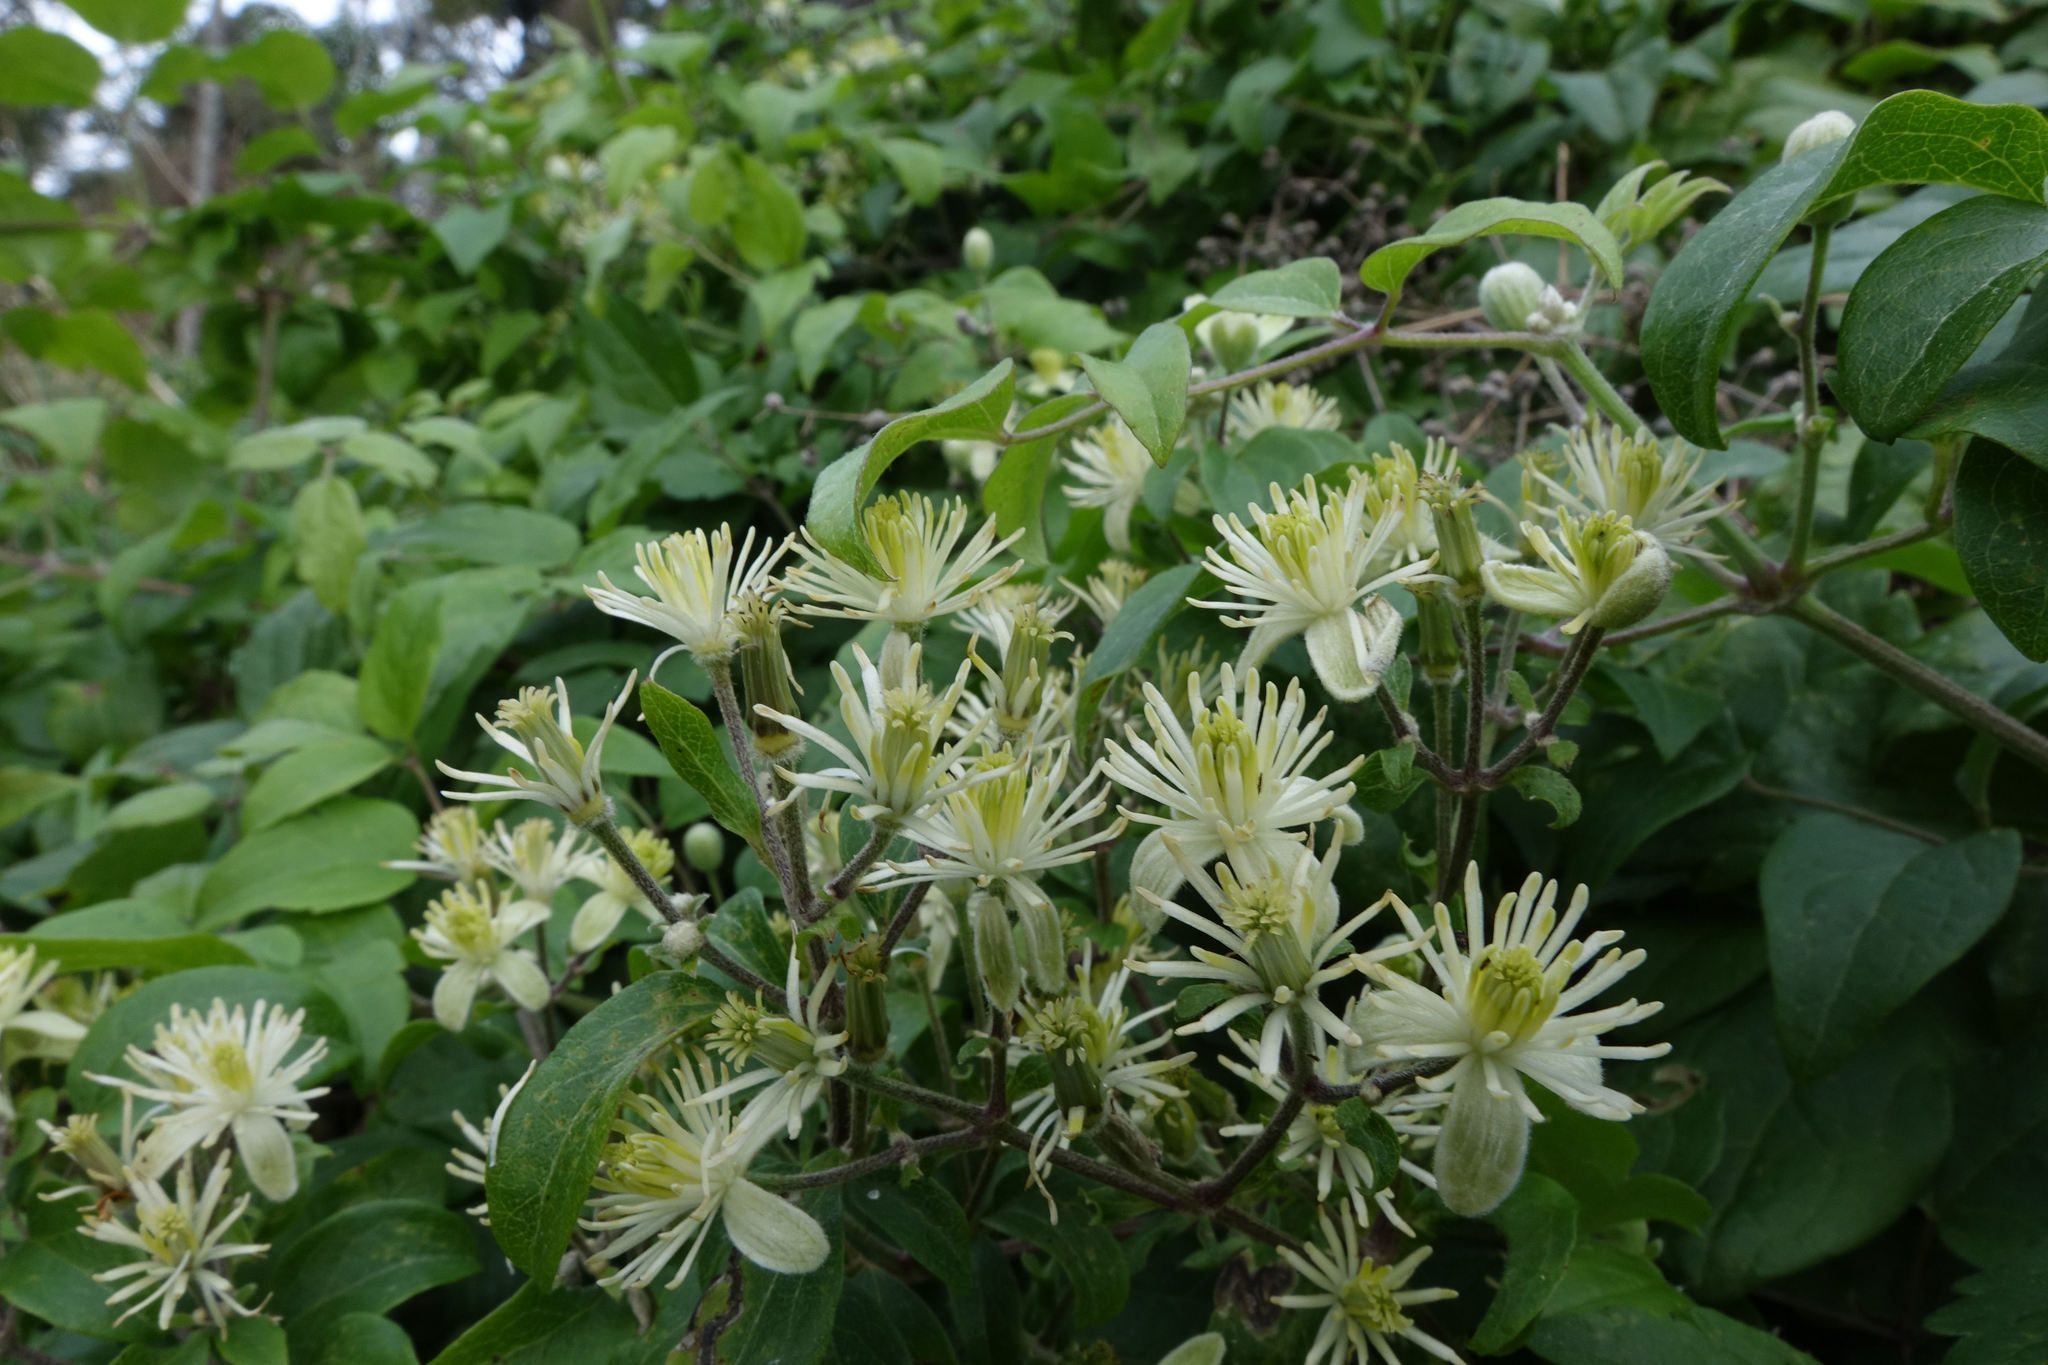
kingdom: Plantae
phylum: Tracheophyta
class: Magnoliopsida
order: Ranunculales
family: Ranunculaceae
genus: Clematis
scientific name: Clematis vitalba
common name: Evergreen clematis
